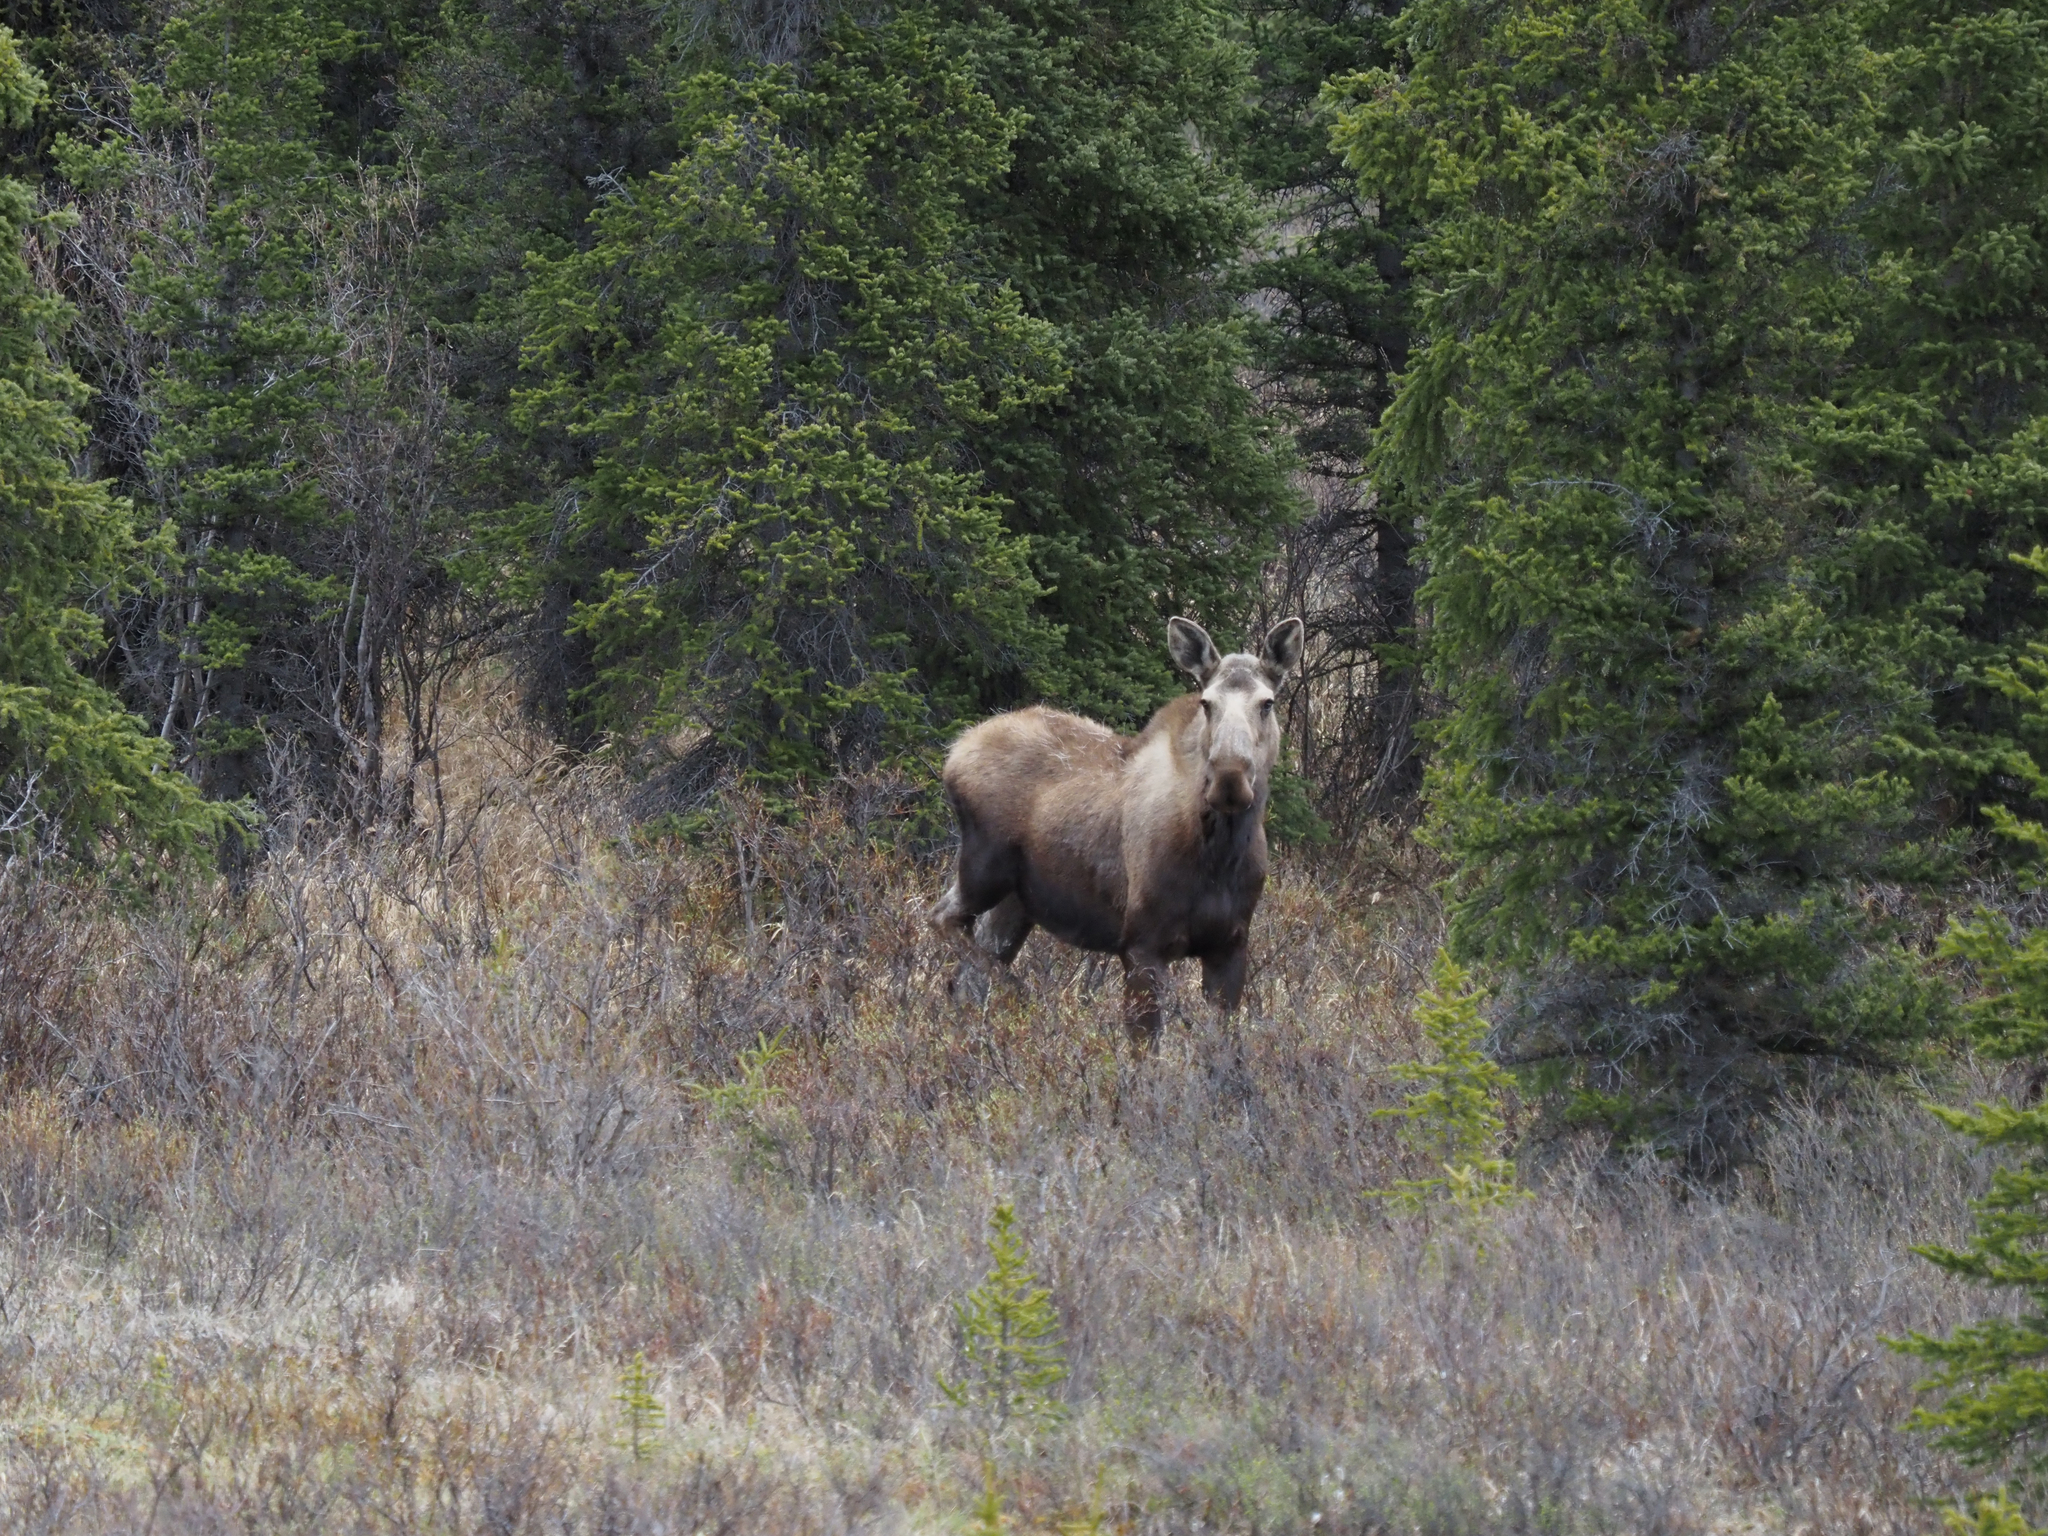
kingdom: Animalia
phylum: Chordata
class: Mammalia
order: Artiodactyla
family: Cervidae
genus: Alces
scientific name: Alces alces
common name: Moose
